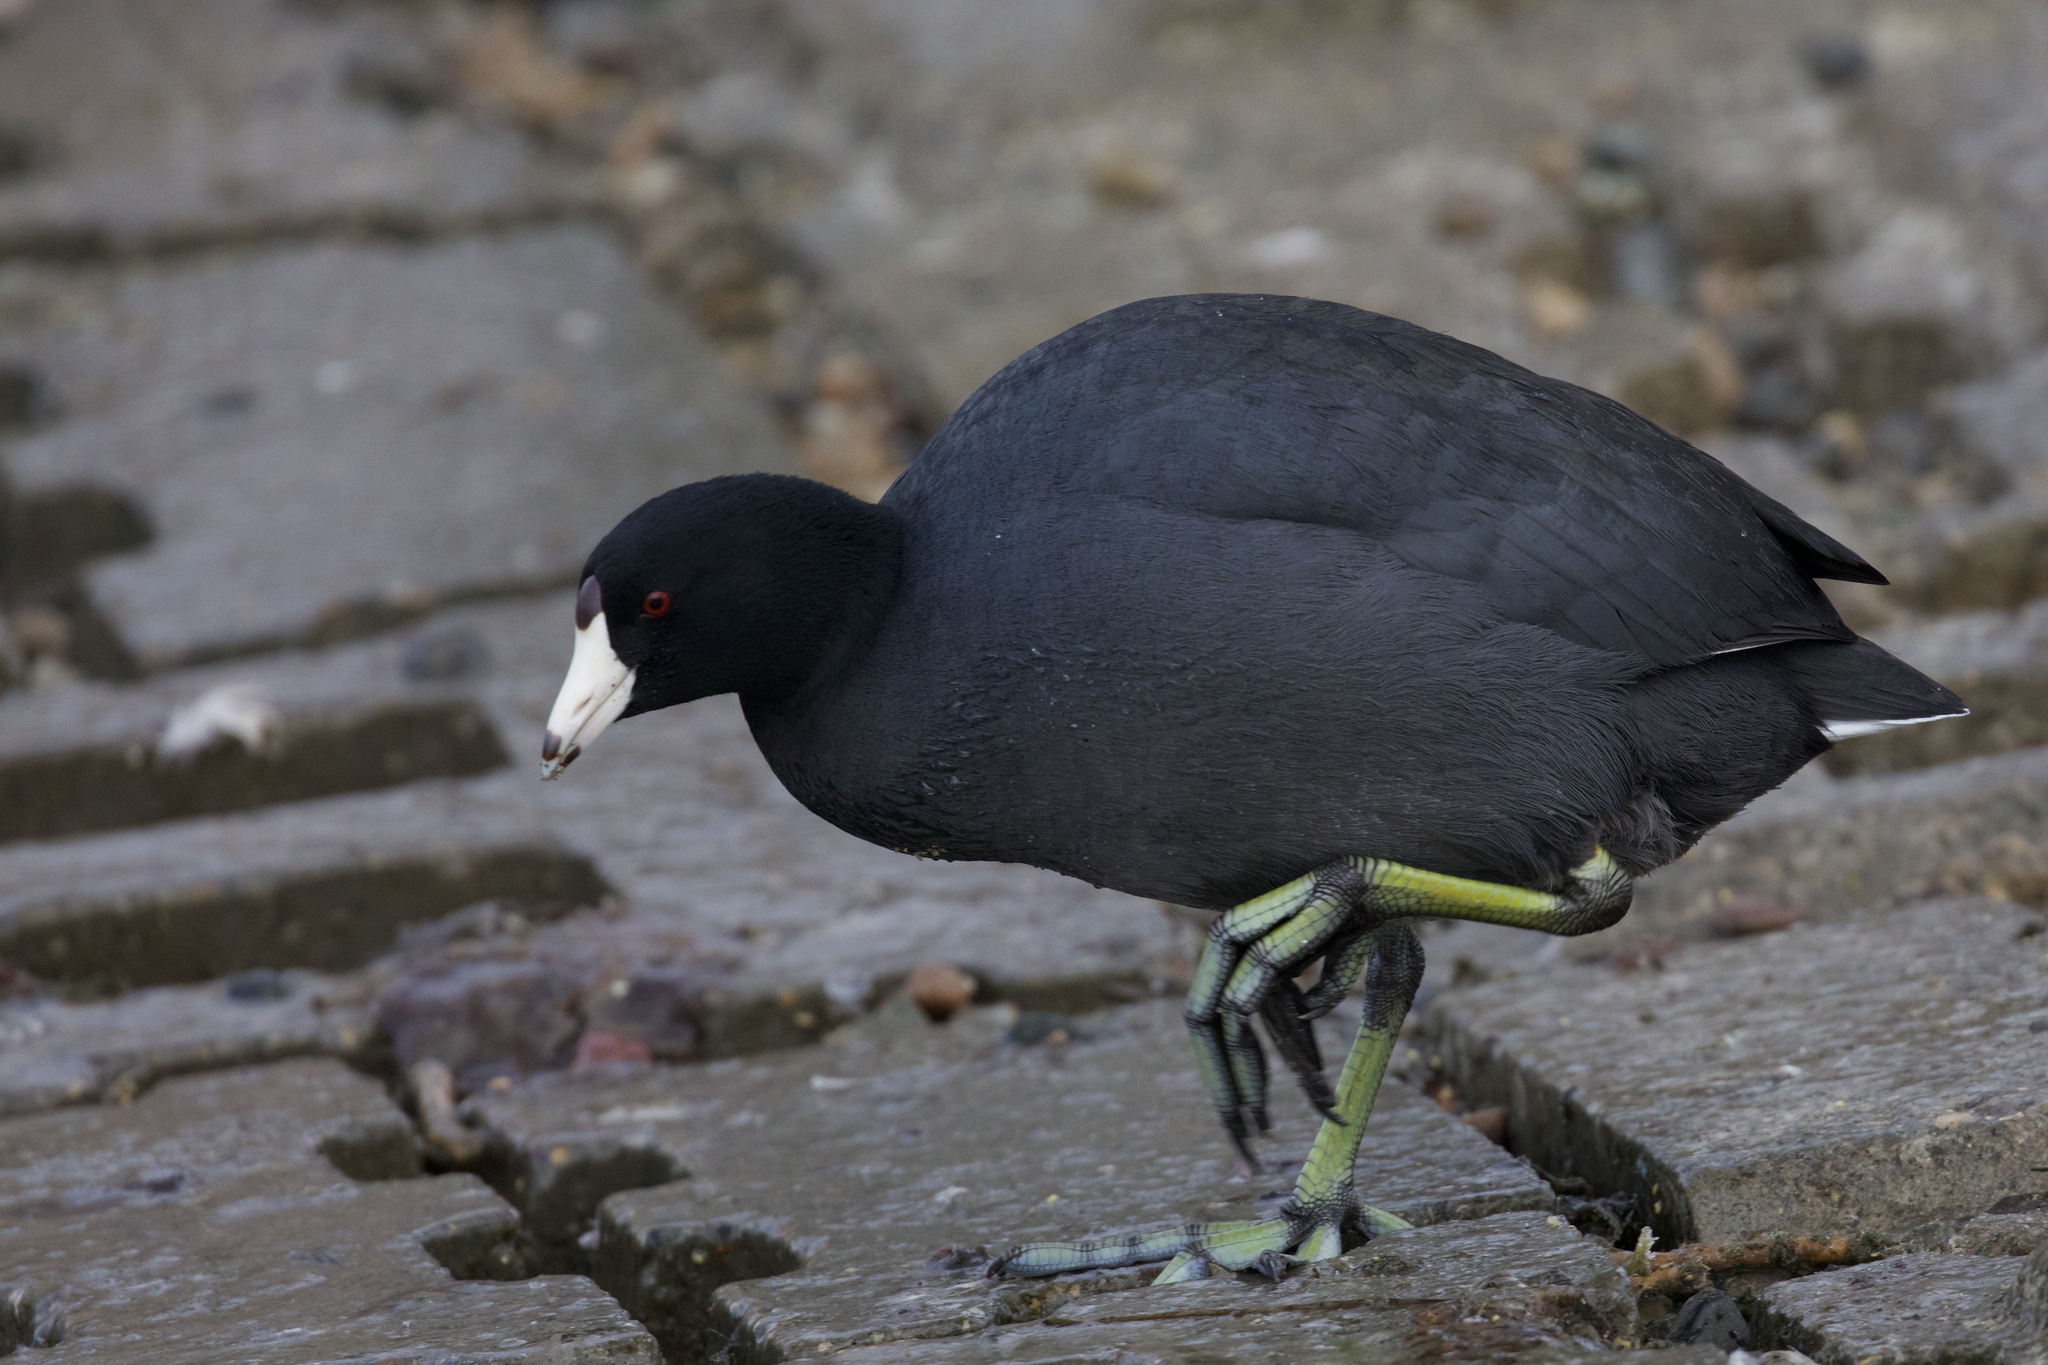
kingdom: Animalia
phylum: Chordata
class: Aves
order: Gruiformes
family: Rallidae
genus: Fulica
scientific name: Fulica americana
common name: American coot
